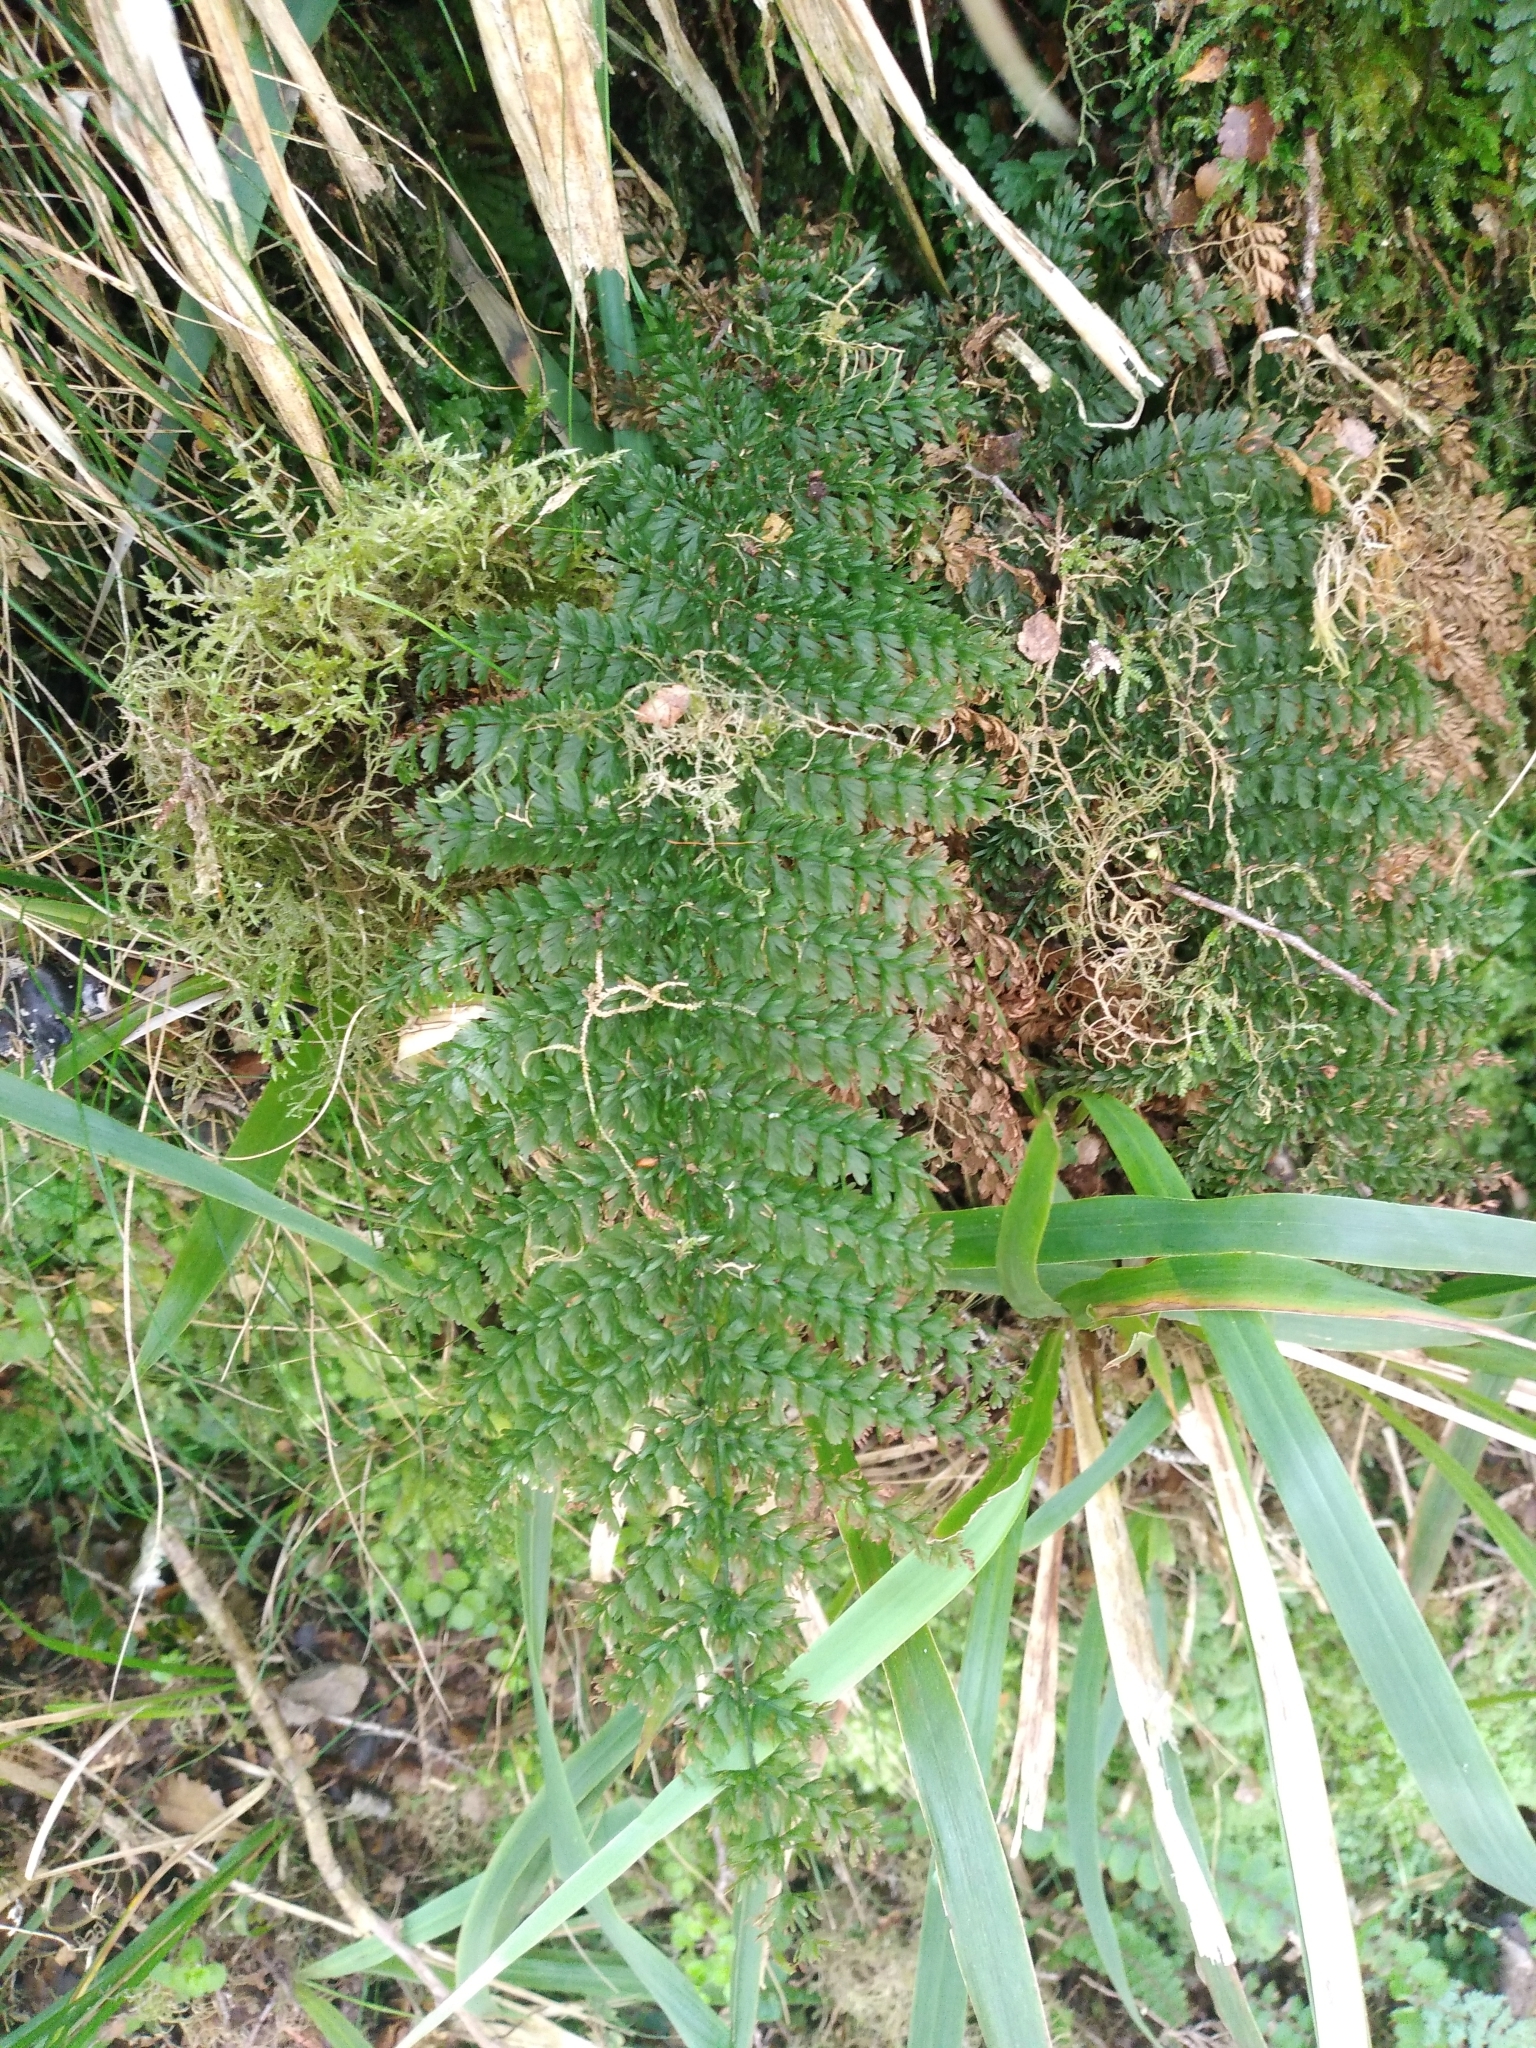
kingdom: Plantae
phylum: Tracheophyta
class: Polypodiopsida
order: Osmundales
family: Osmundaceae
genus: Leptopteris
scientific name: Leptopteris superba
